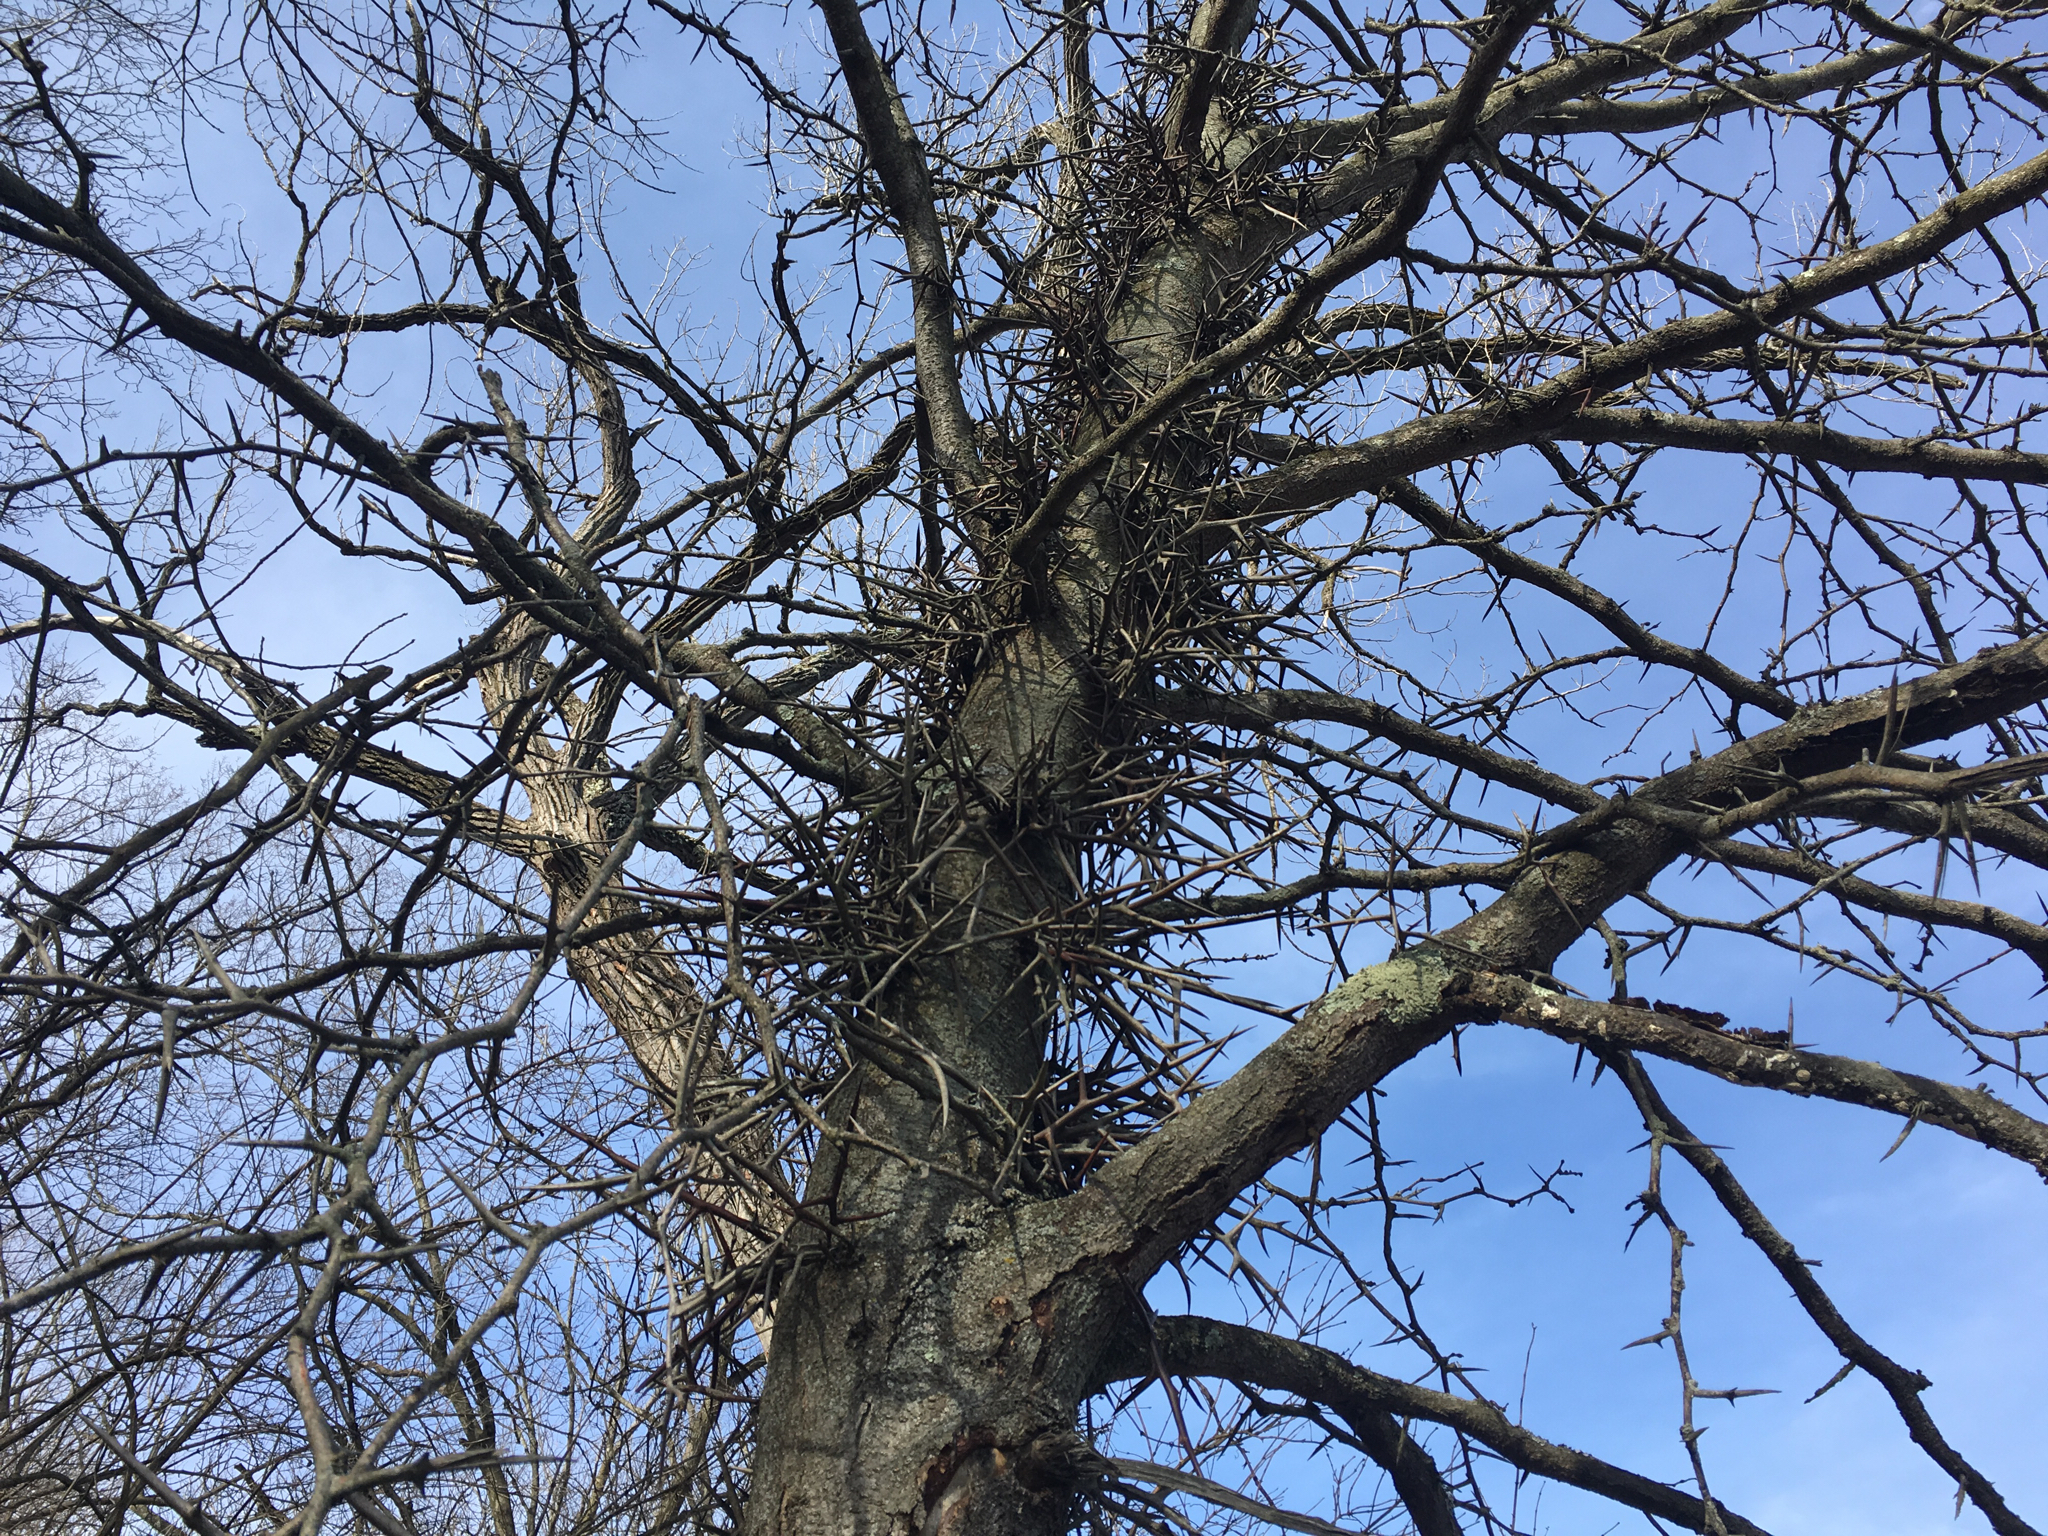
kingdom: Plantae
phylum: Tracheophyta
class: Magnoliopsida
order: Fabales
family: Fabaceae
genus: Gleditsia
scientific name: Gleditsia triacanthos
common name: Common honeylocust
